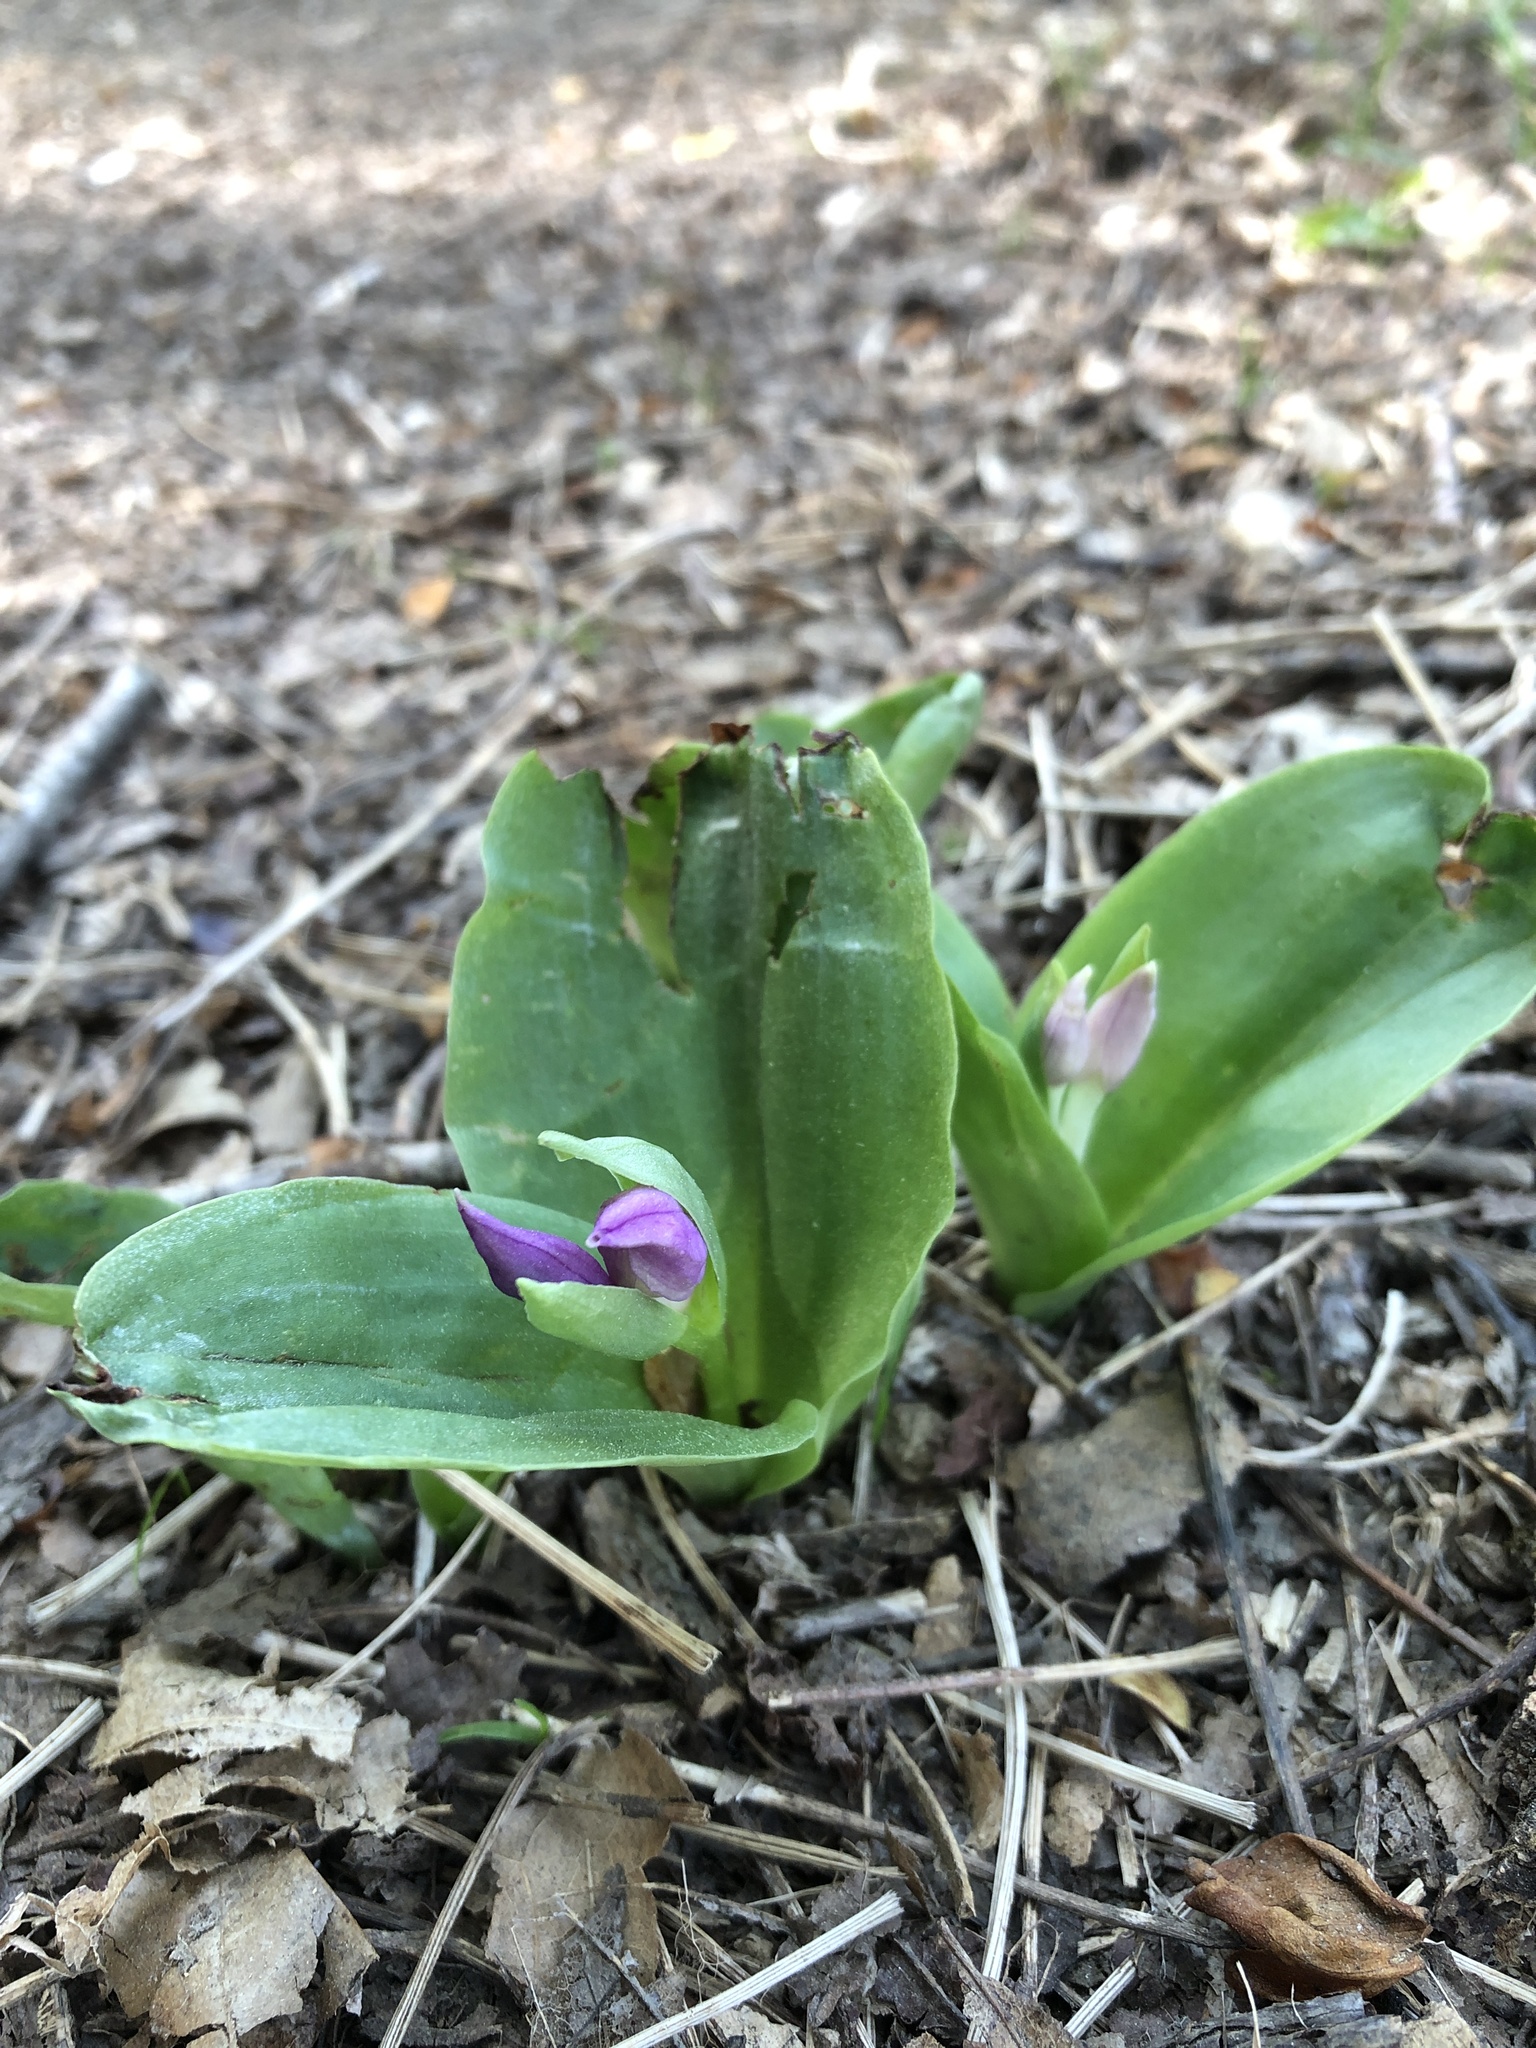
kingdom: Plantae
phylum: Tracheophyta
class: Liliopsida
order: Asparagales
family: Orchidaceae
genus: Galearis
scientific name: Galearis spectabilis
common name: Purple-hooded orchis
